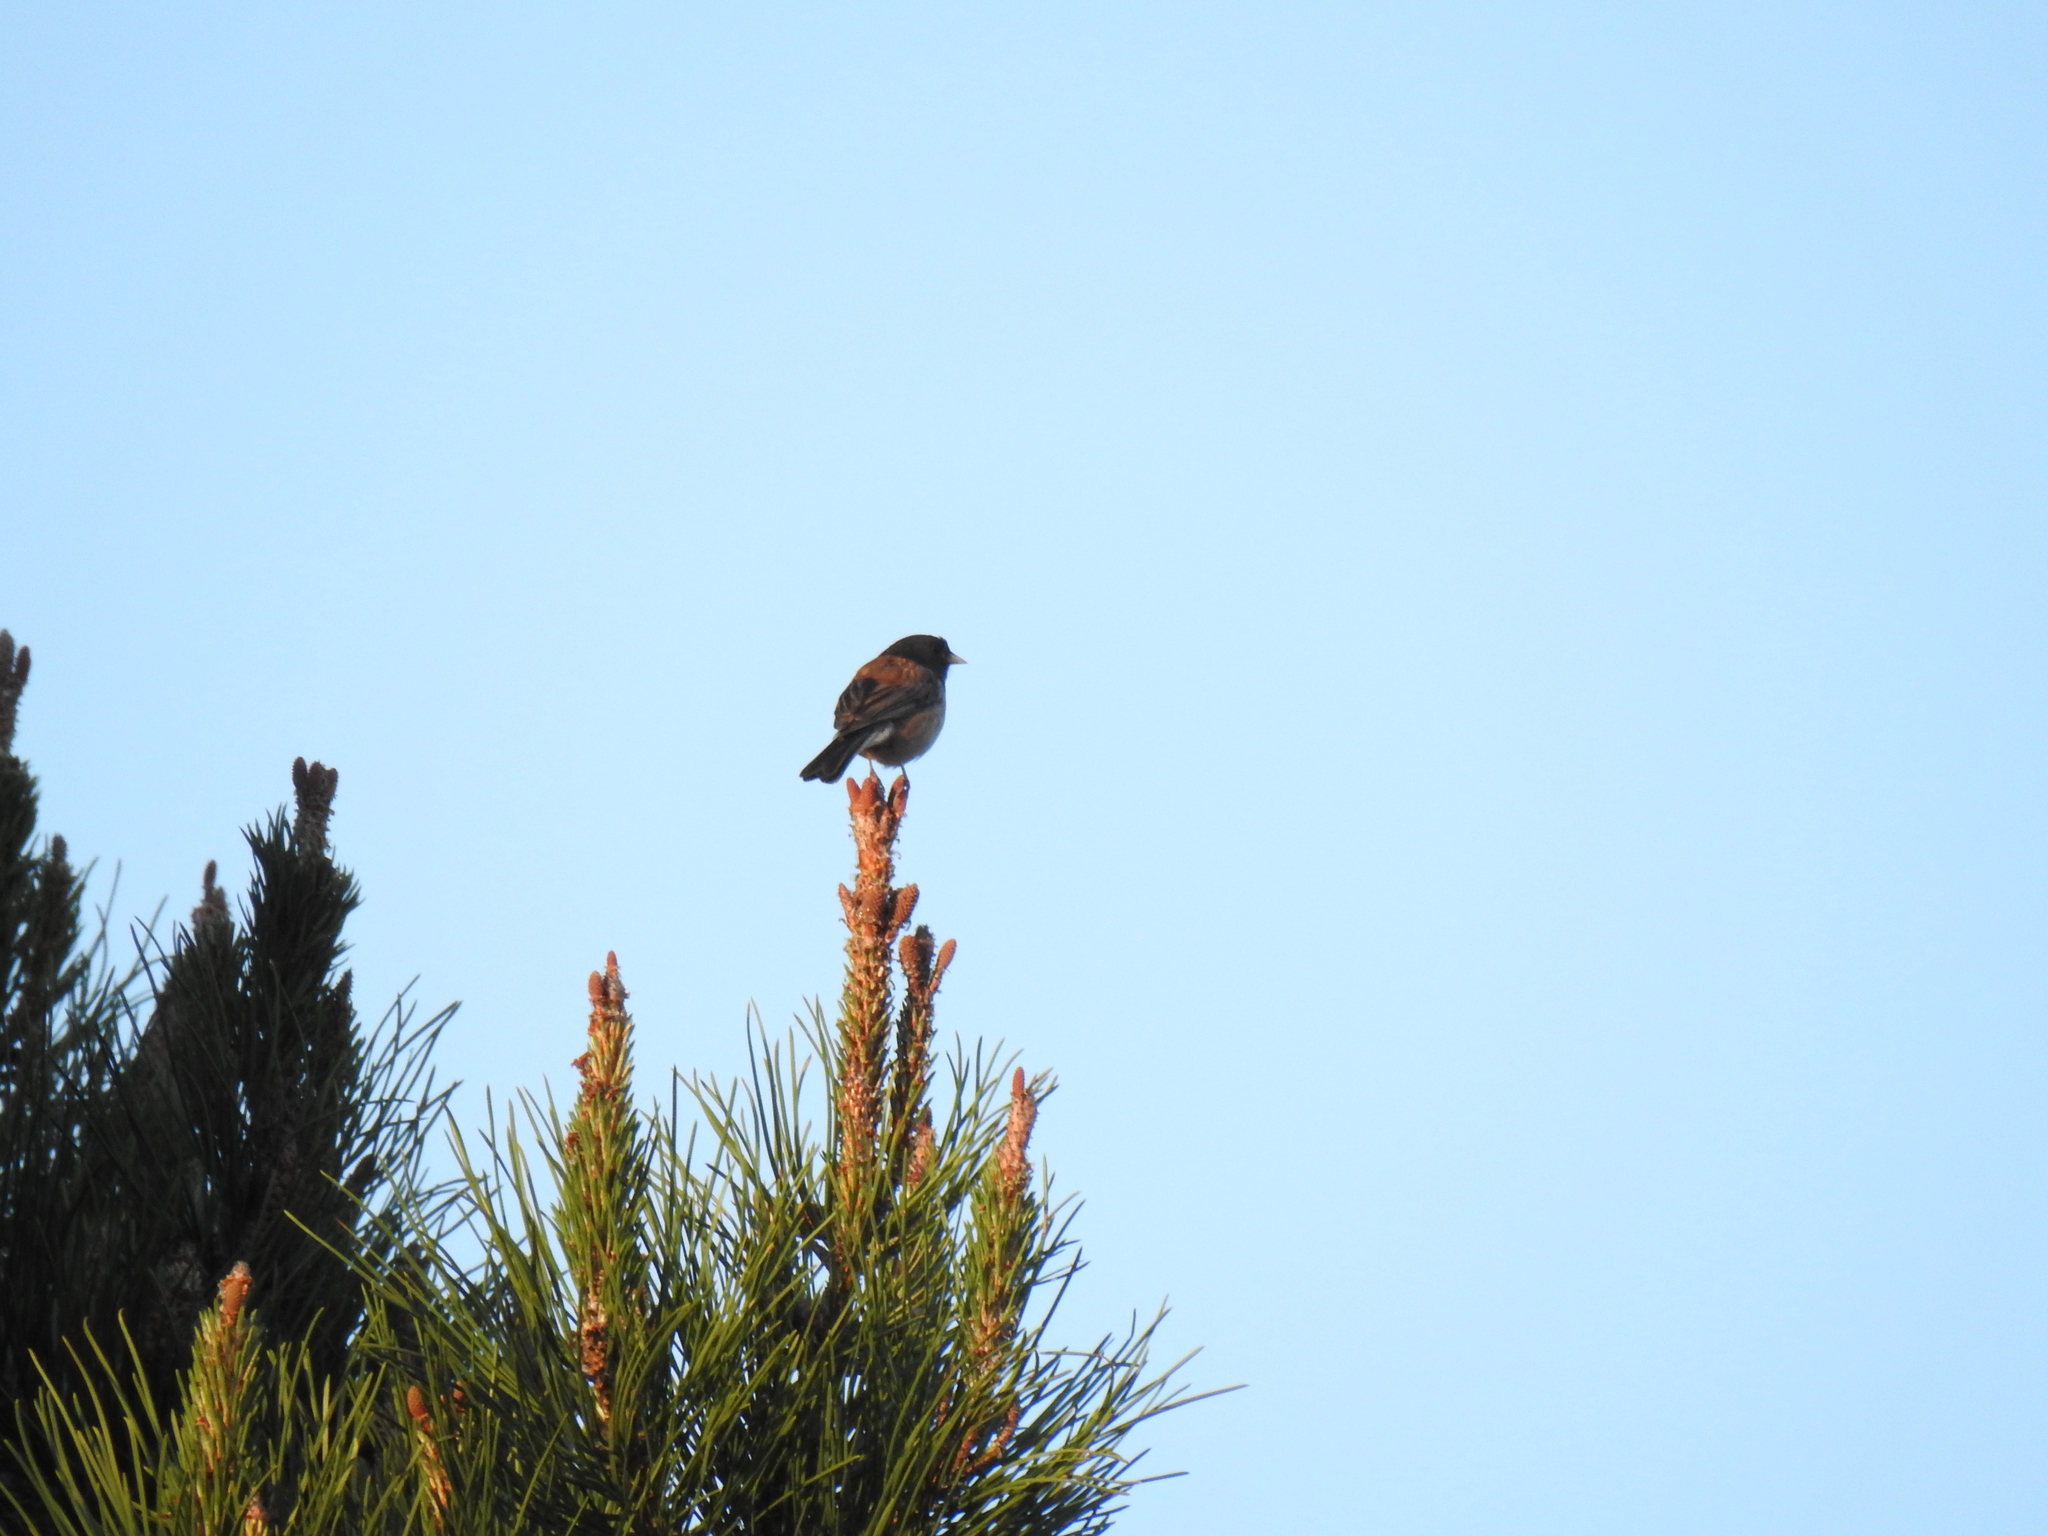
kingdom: Animalia
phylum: Chordata
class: Aves
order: Passeriformes
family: Passerellidae
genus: Junco
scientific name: Junco hyemalis
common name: Dark-eyed junco
